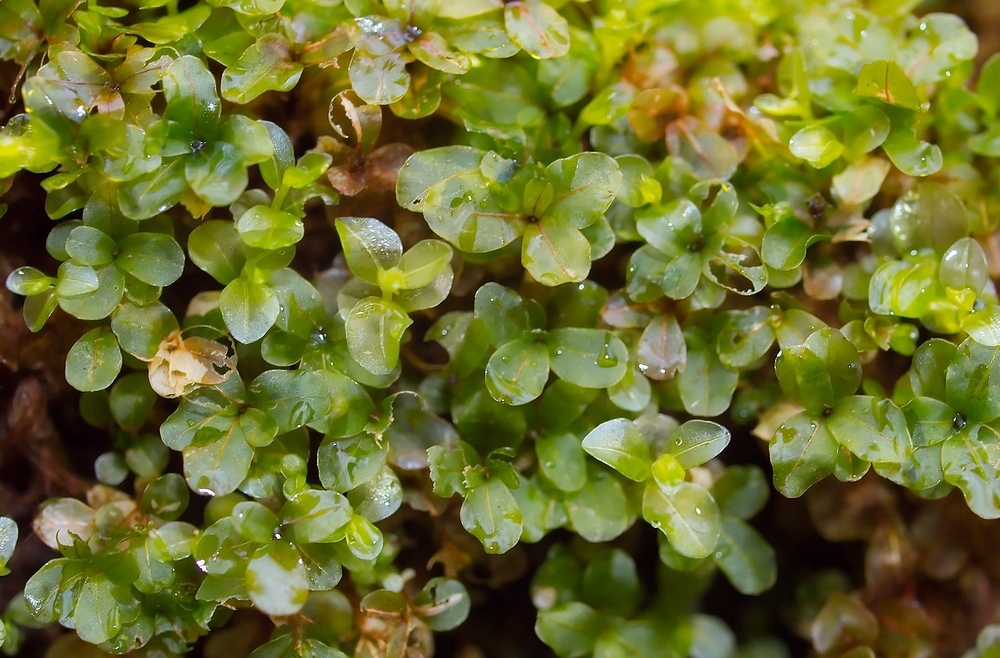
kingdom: Plantae
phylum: Bryophyta
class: Bryopsida
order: Bryales
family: Mniaceae
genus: Rhizomnium
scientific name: Rhizomnium punctatum
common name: Dotted leafy moss
